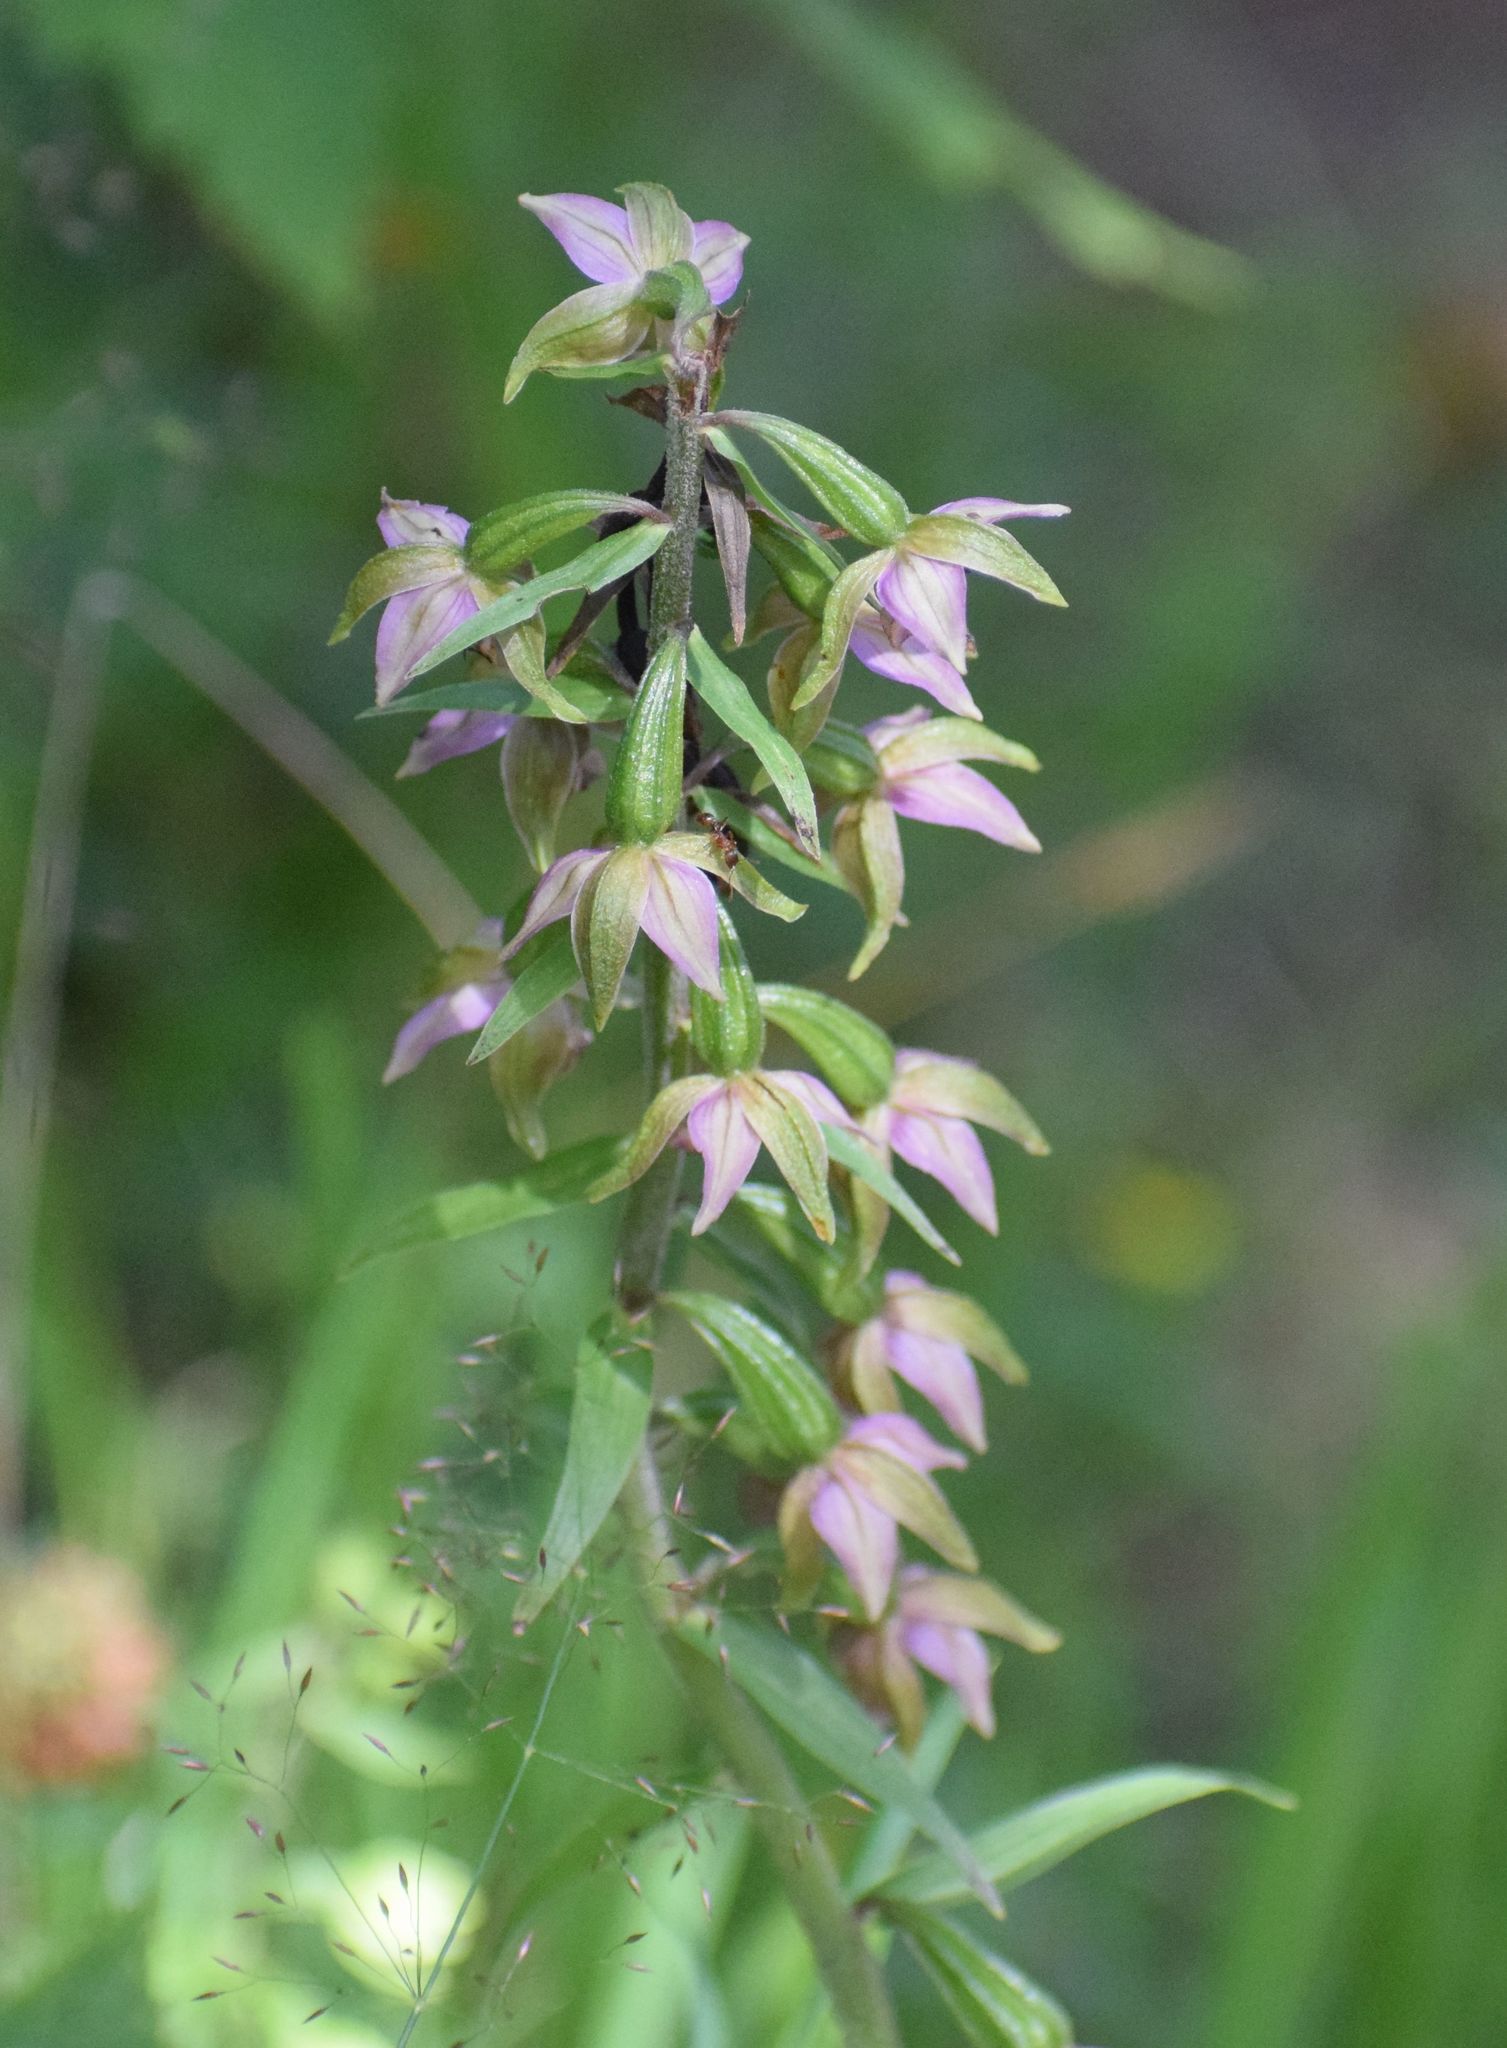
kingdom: Plantae
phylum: Tracheophyta
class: Liliopsida
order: Asparagales
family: Orchidaceae
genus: Epipactis
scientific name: Epipactis helleborine
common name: Broad-leaved helleborine
